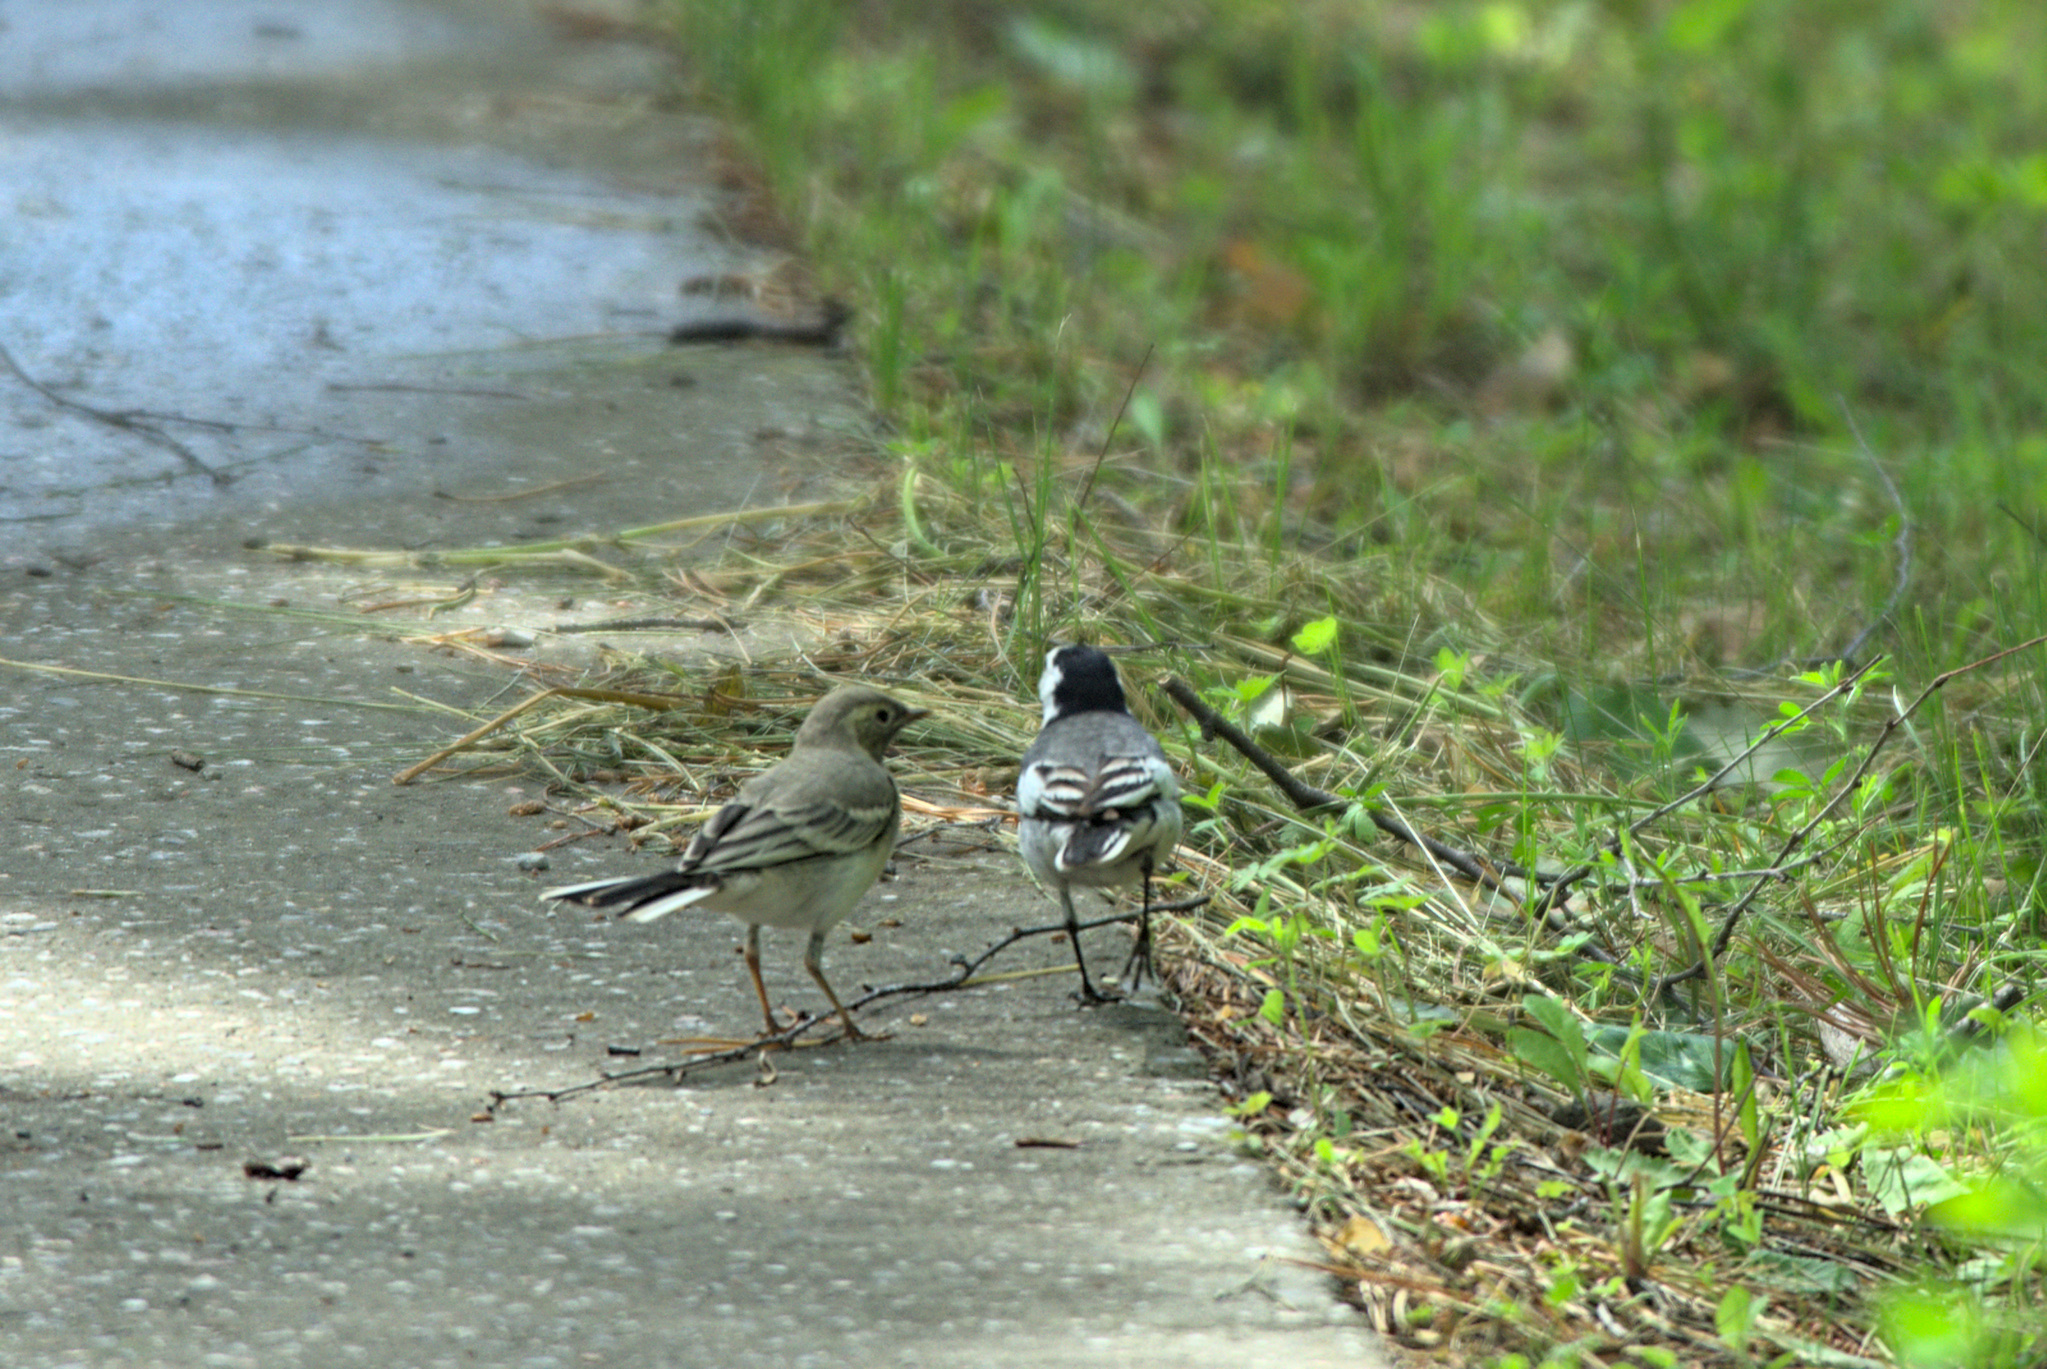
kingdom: Animalia
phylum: Chordata
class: Aves
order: Passeriformes
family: Motacillidae
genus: Motacilla
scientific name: Motacilla alba
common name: White wagtail
